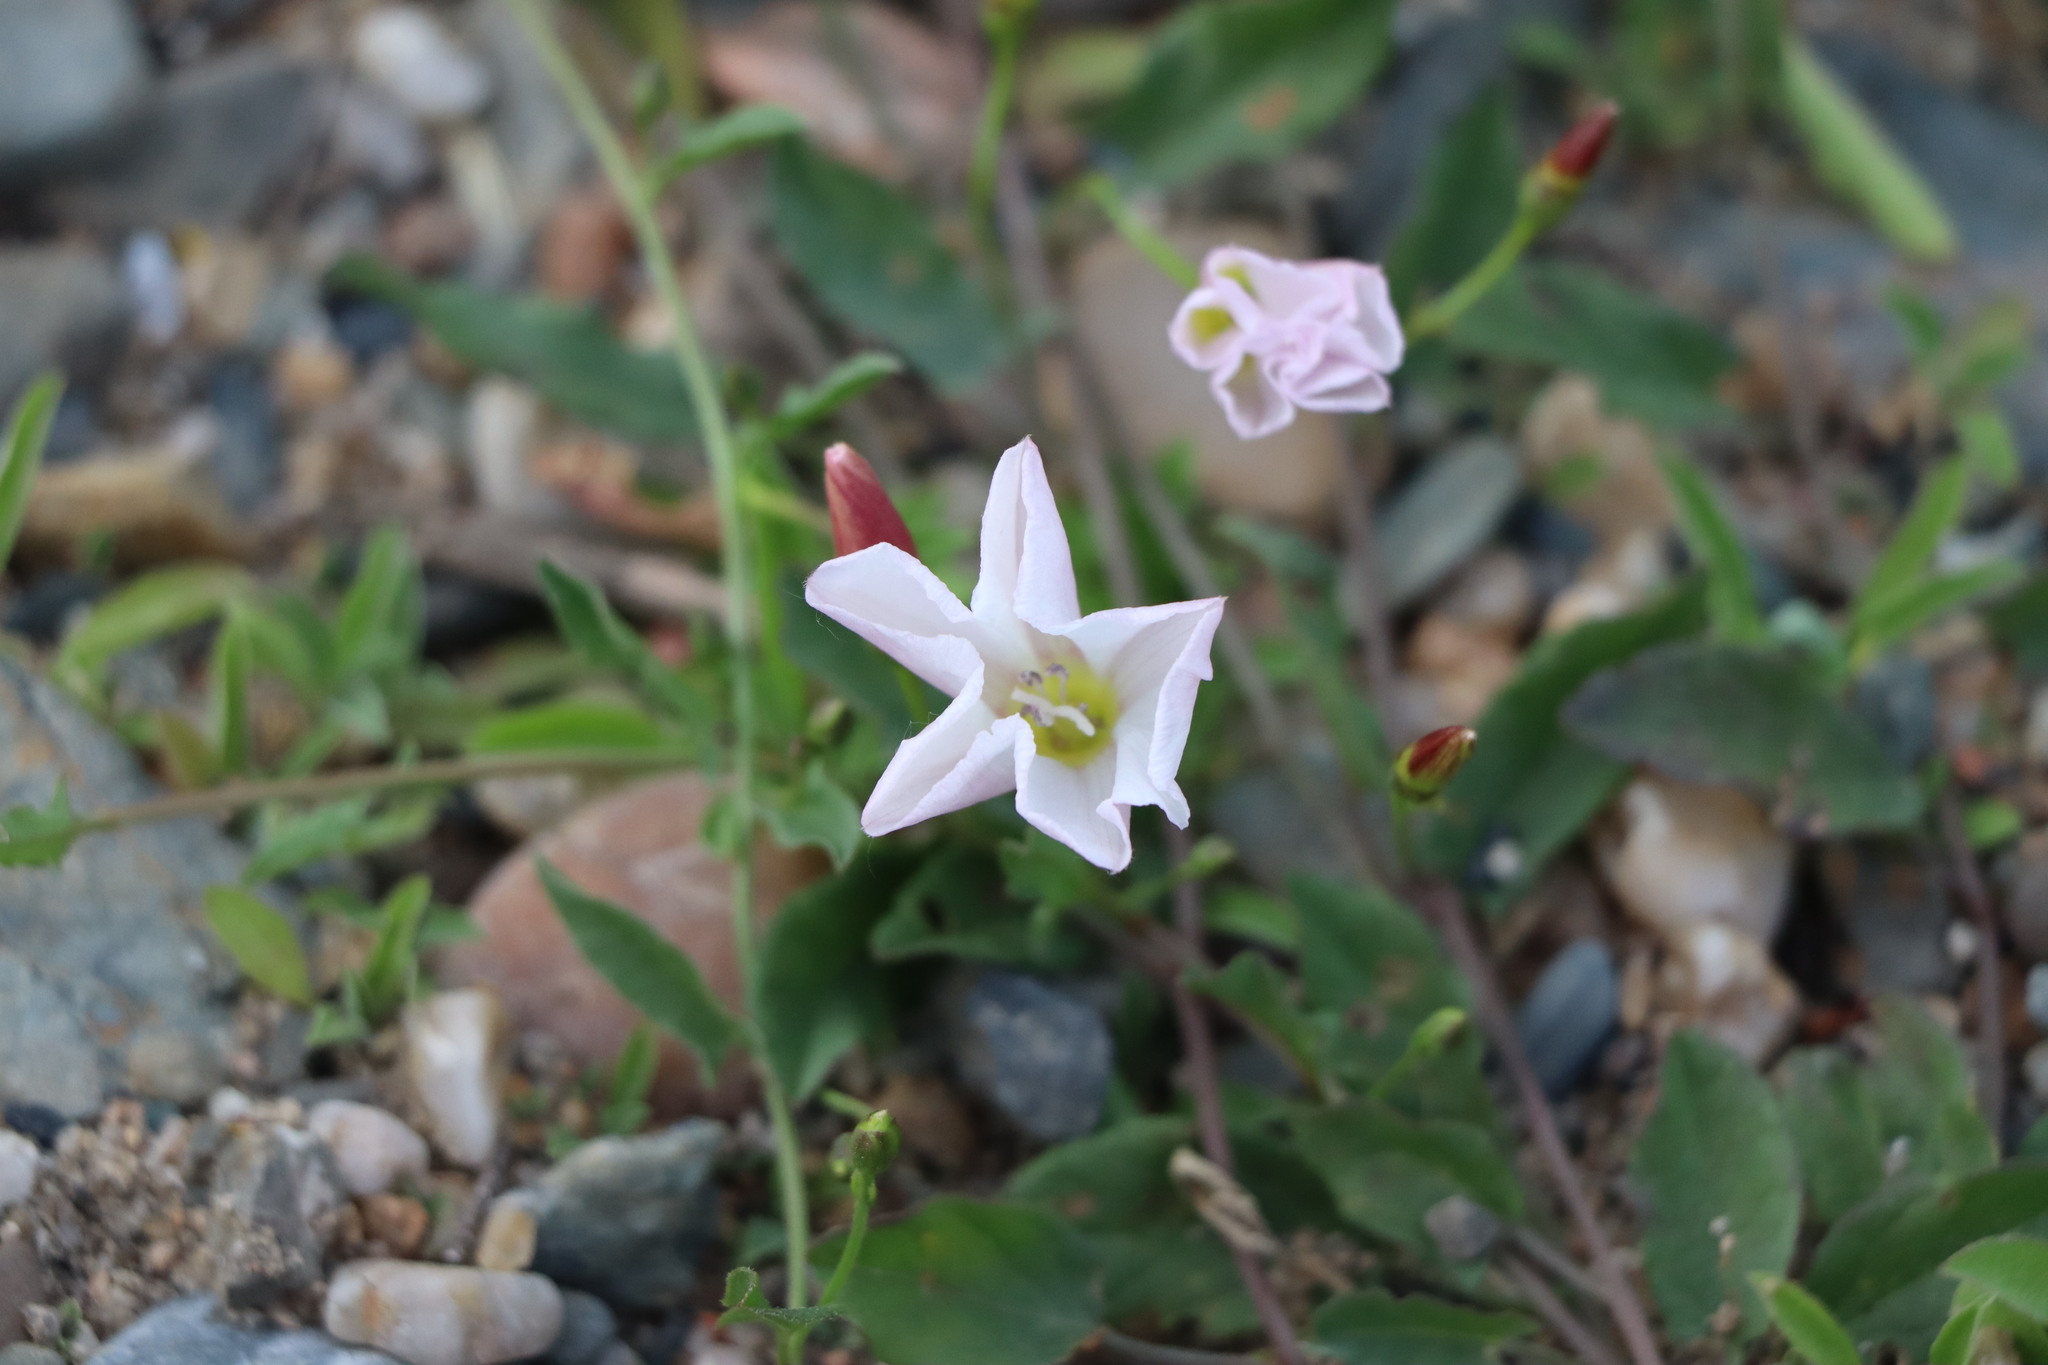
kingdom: Plantae
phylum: Tracheophyta
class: Magnoliopsida
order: Solanales
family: Convolvulaceae
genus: Convolvulus
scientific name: Convolvulus arvensis
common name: Field bindweed
